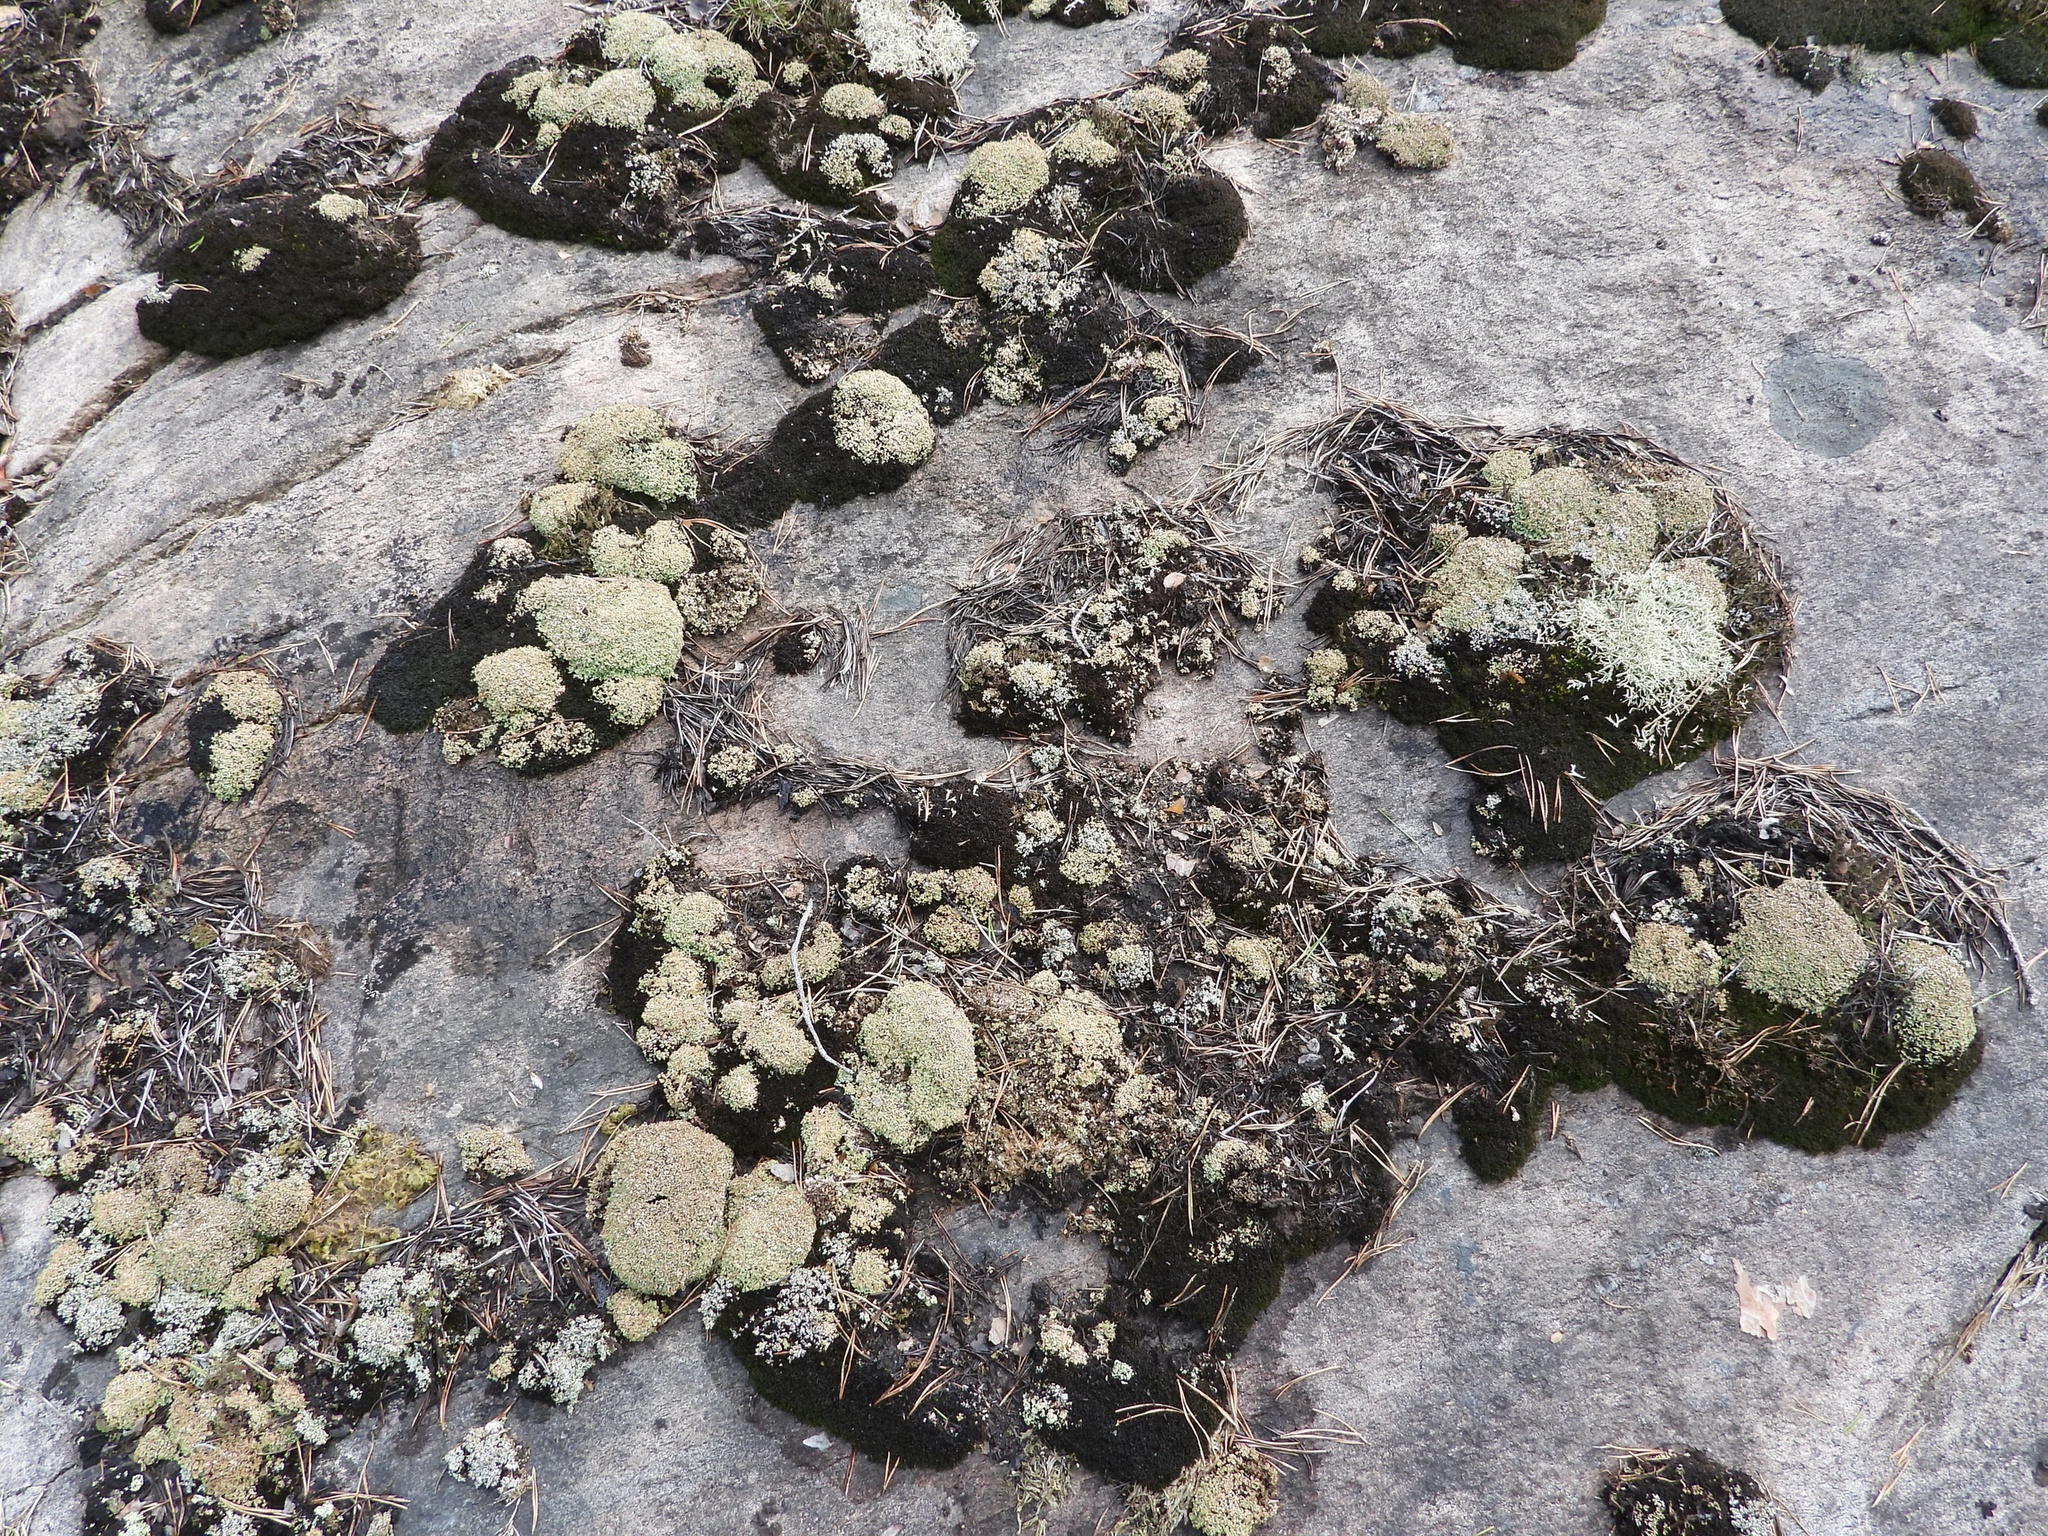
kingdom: Fungi
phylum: Ascomycota
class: Lecanoromycetes
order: Lecanorales
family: Cladoniaceae
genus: Cladonia
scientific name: Cladonia strepsilis
